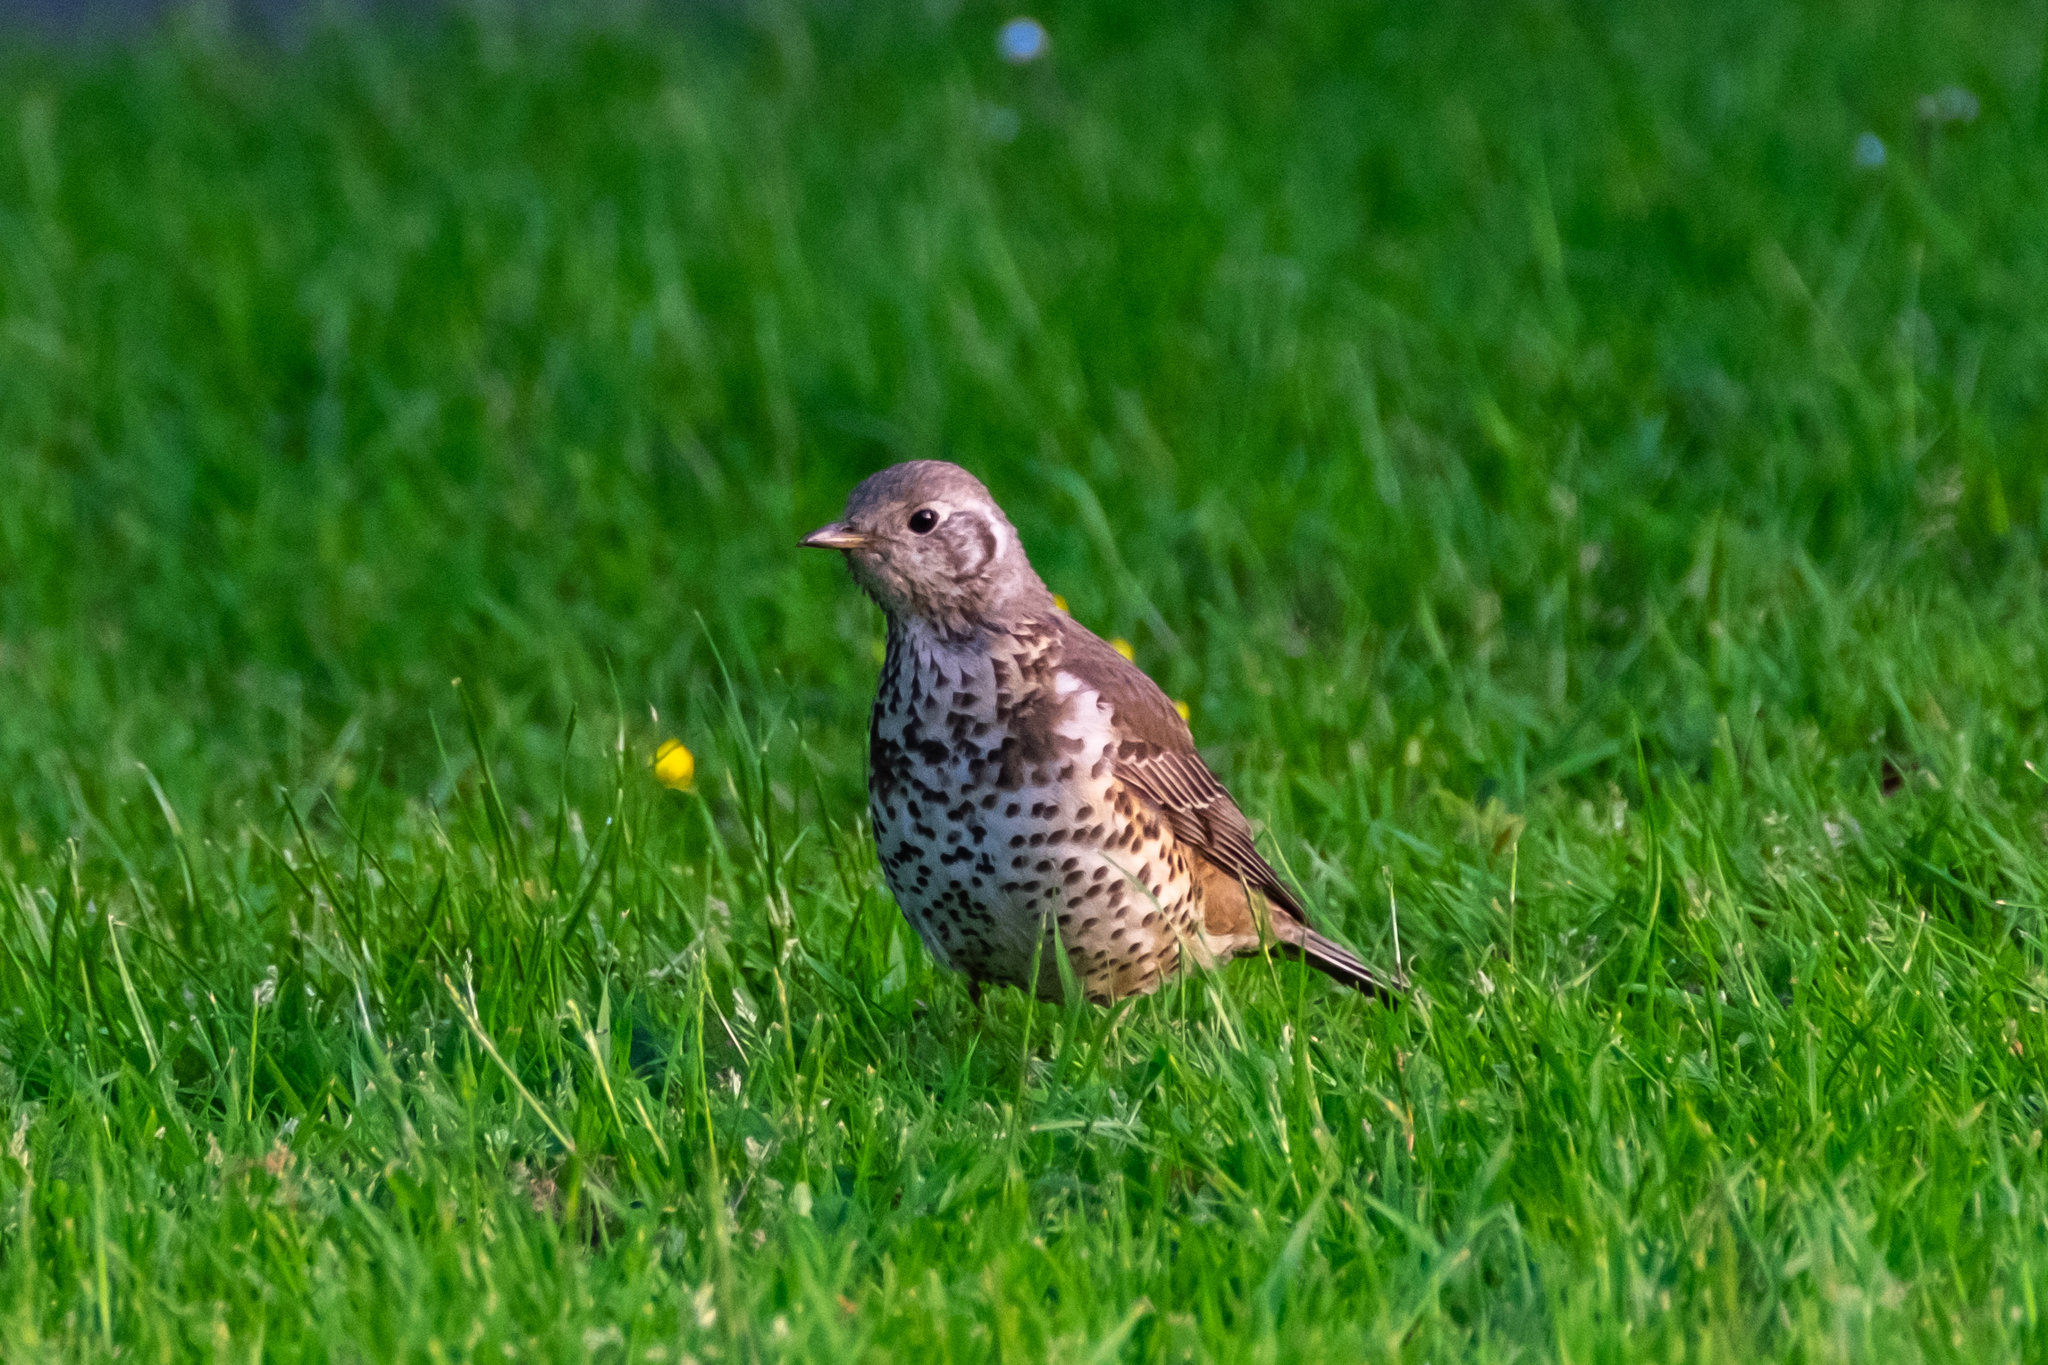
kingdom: Animalia
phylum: Chordata
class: Aves
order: Passeriformes
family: Turdidae
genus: Turdus
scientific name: Turdus viscivorus
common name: Mistle thrush
